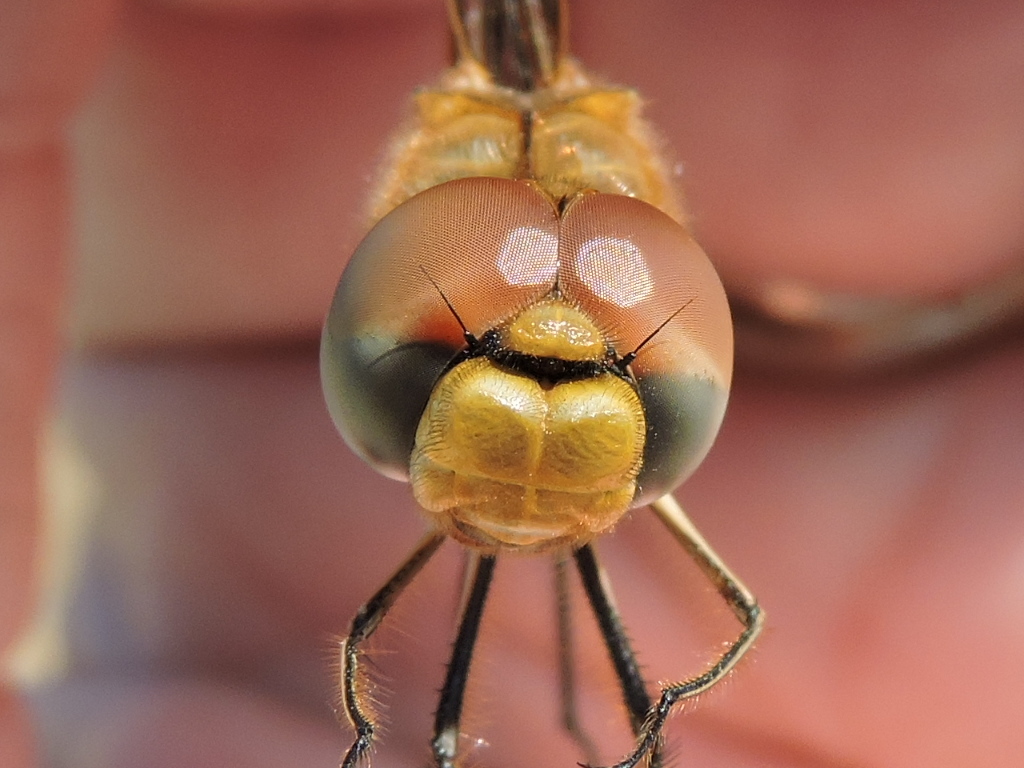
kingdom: Animalia
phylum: Arthropoda
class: Insecta
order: Odonata
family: Libellulidae
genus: Pantala
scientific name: Pantala flavescens
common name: Wandering glider
